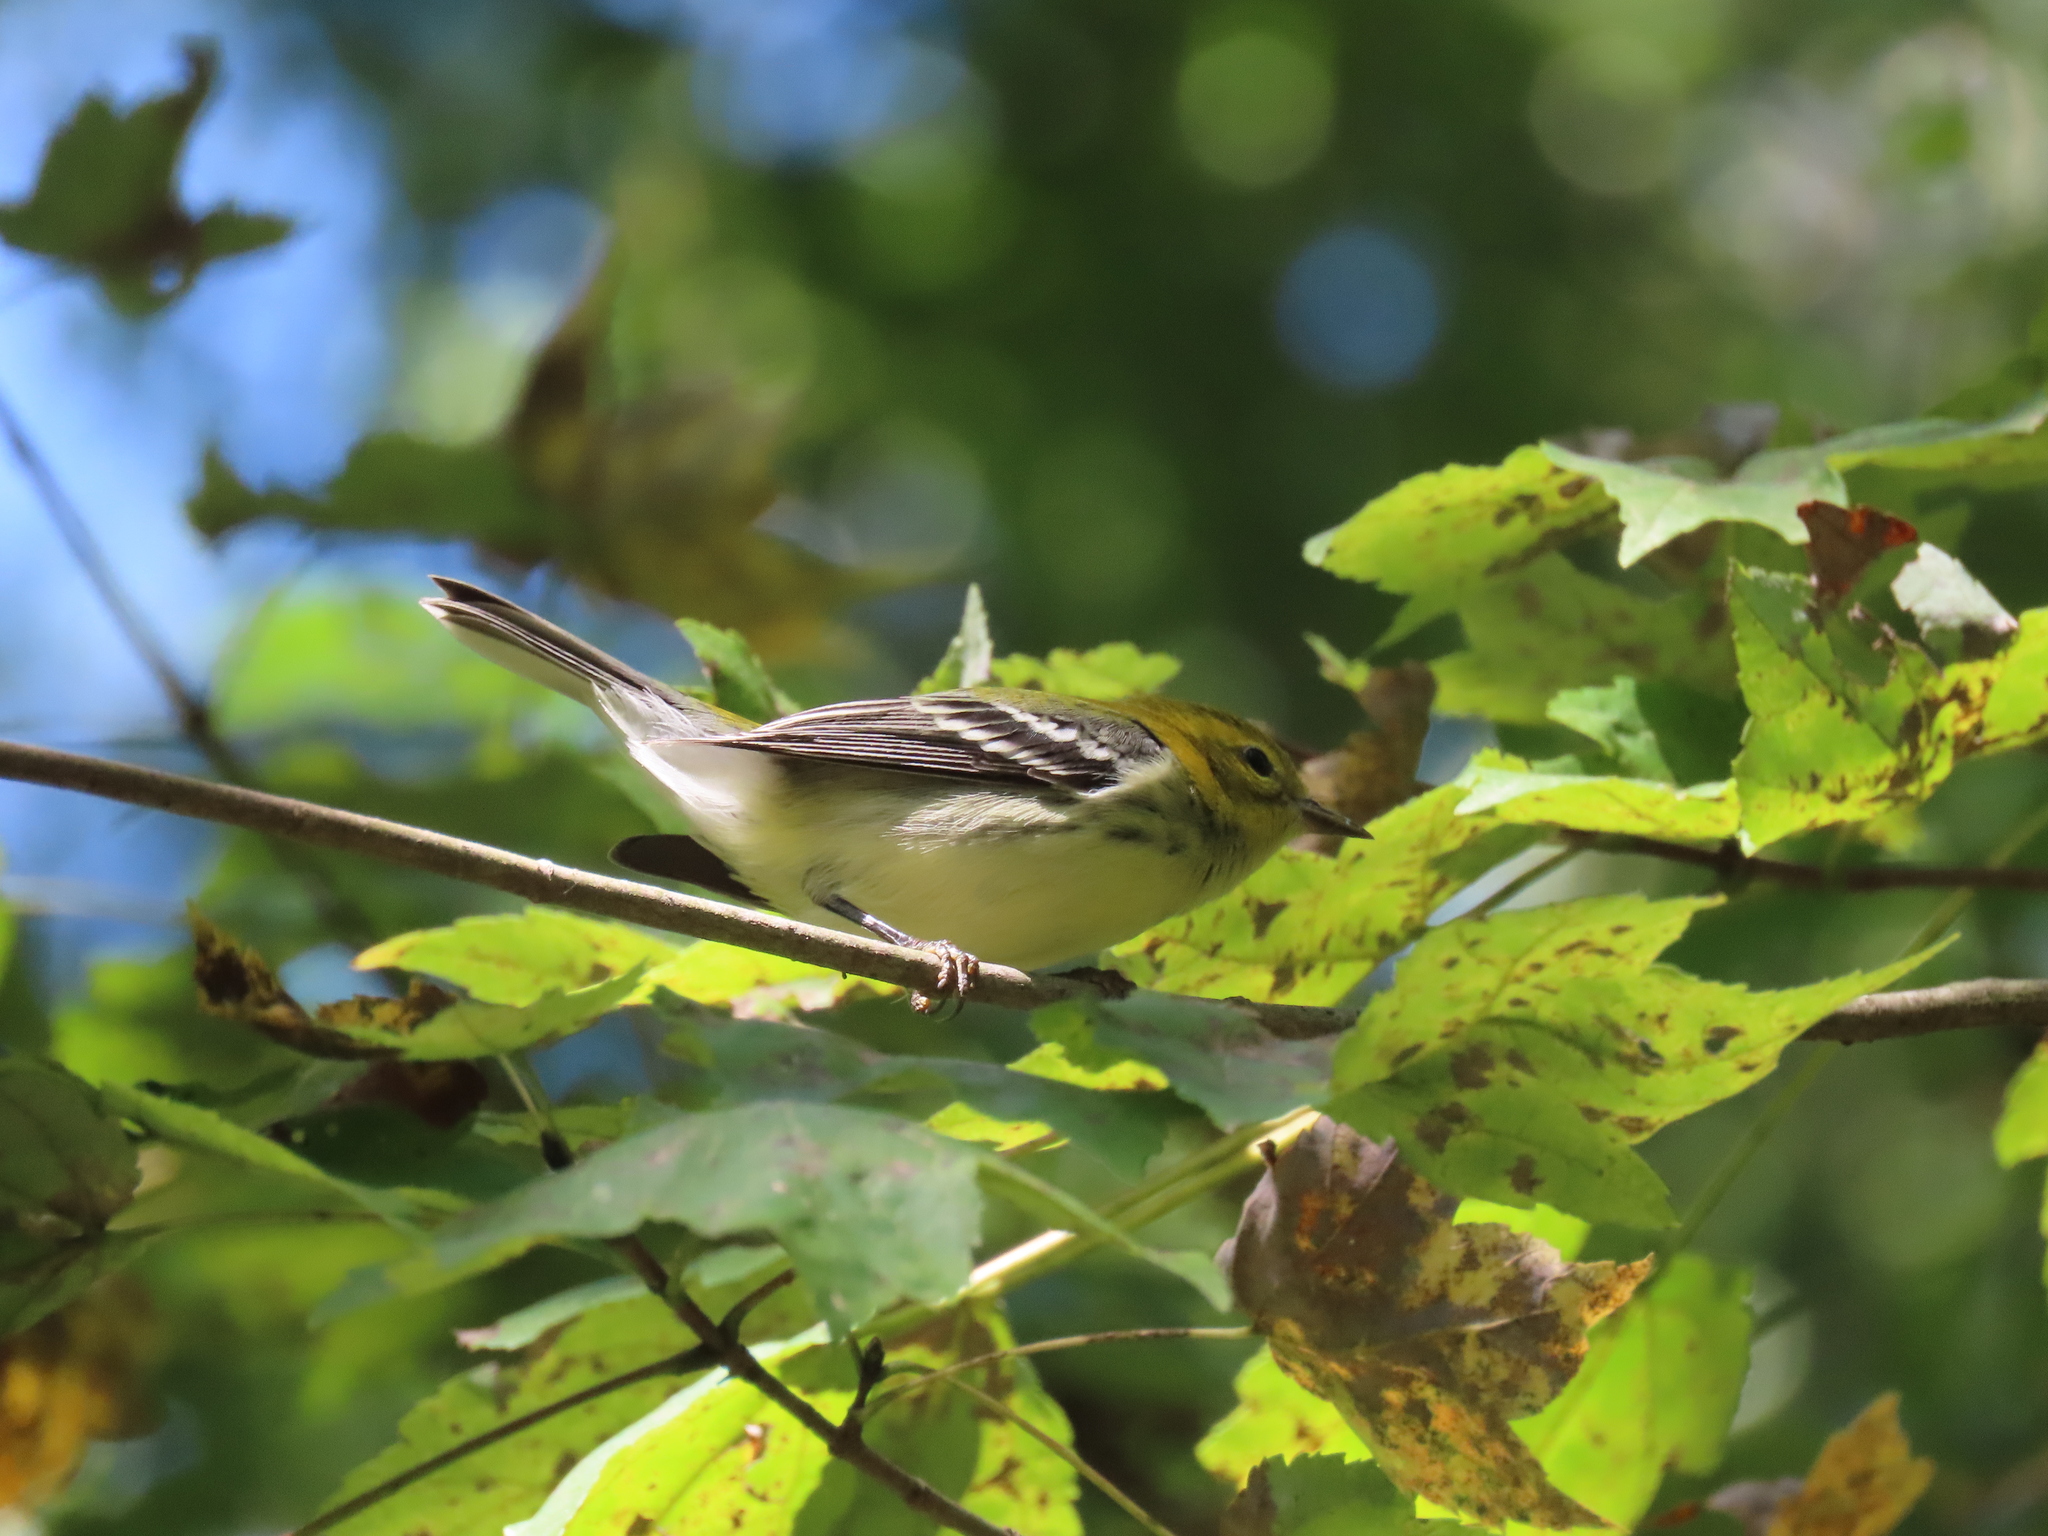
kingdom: Animalia
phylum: Chordata
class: Aves
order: Passeriformes
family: Parulidae
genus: Setophaga
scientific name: Setophaga virens
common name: Black-throated green warbler
